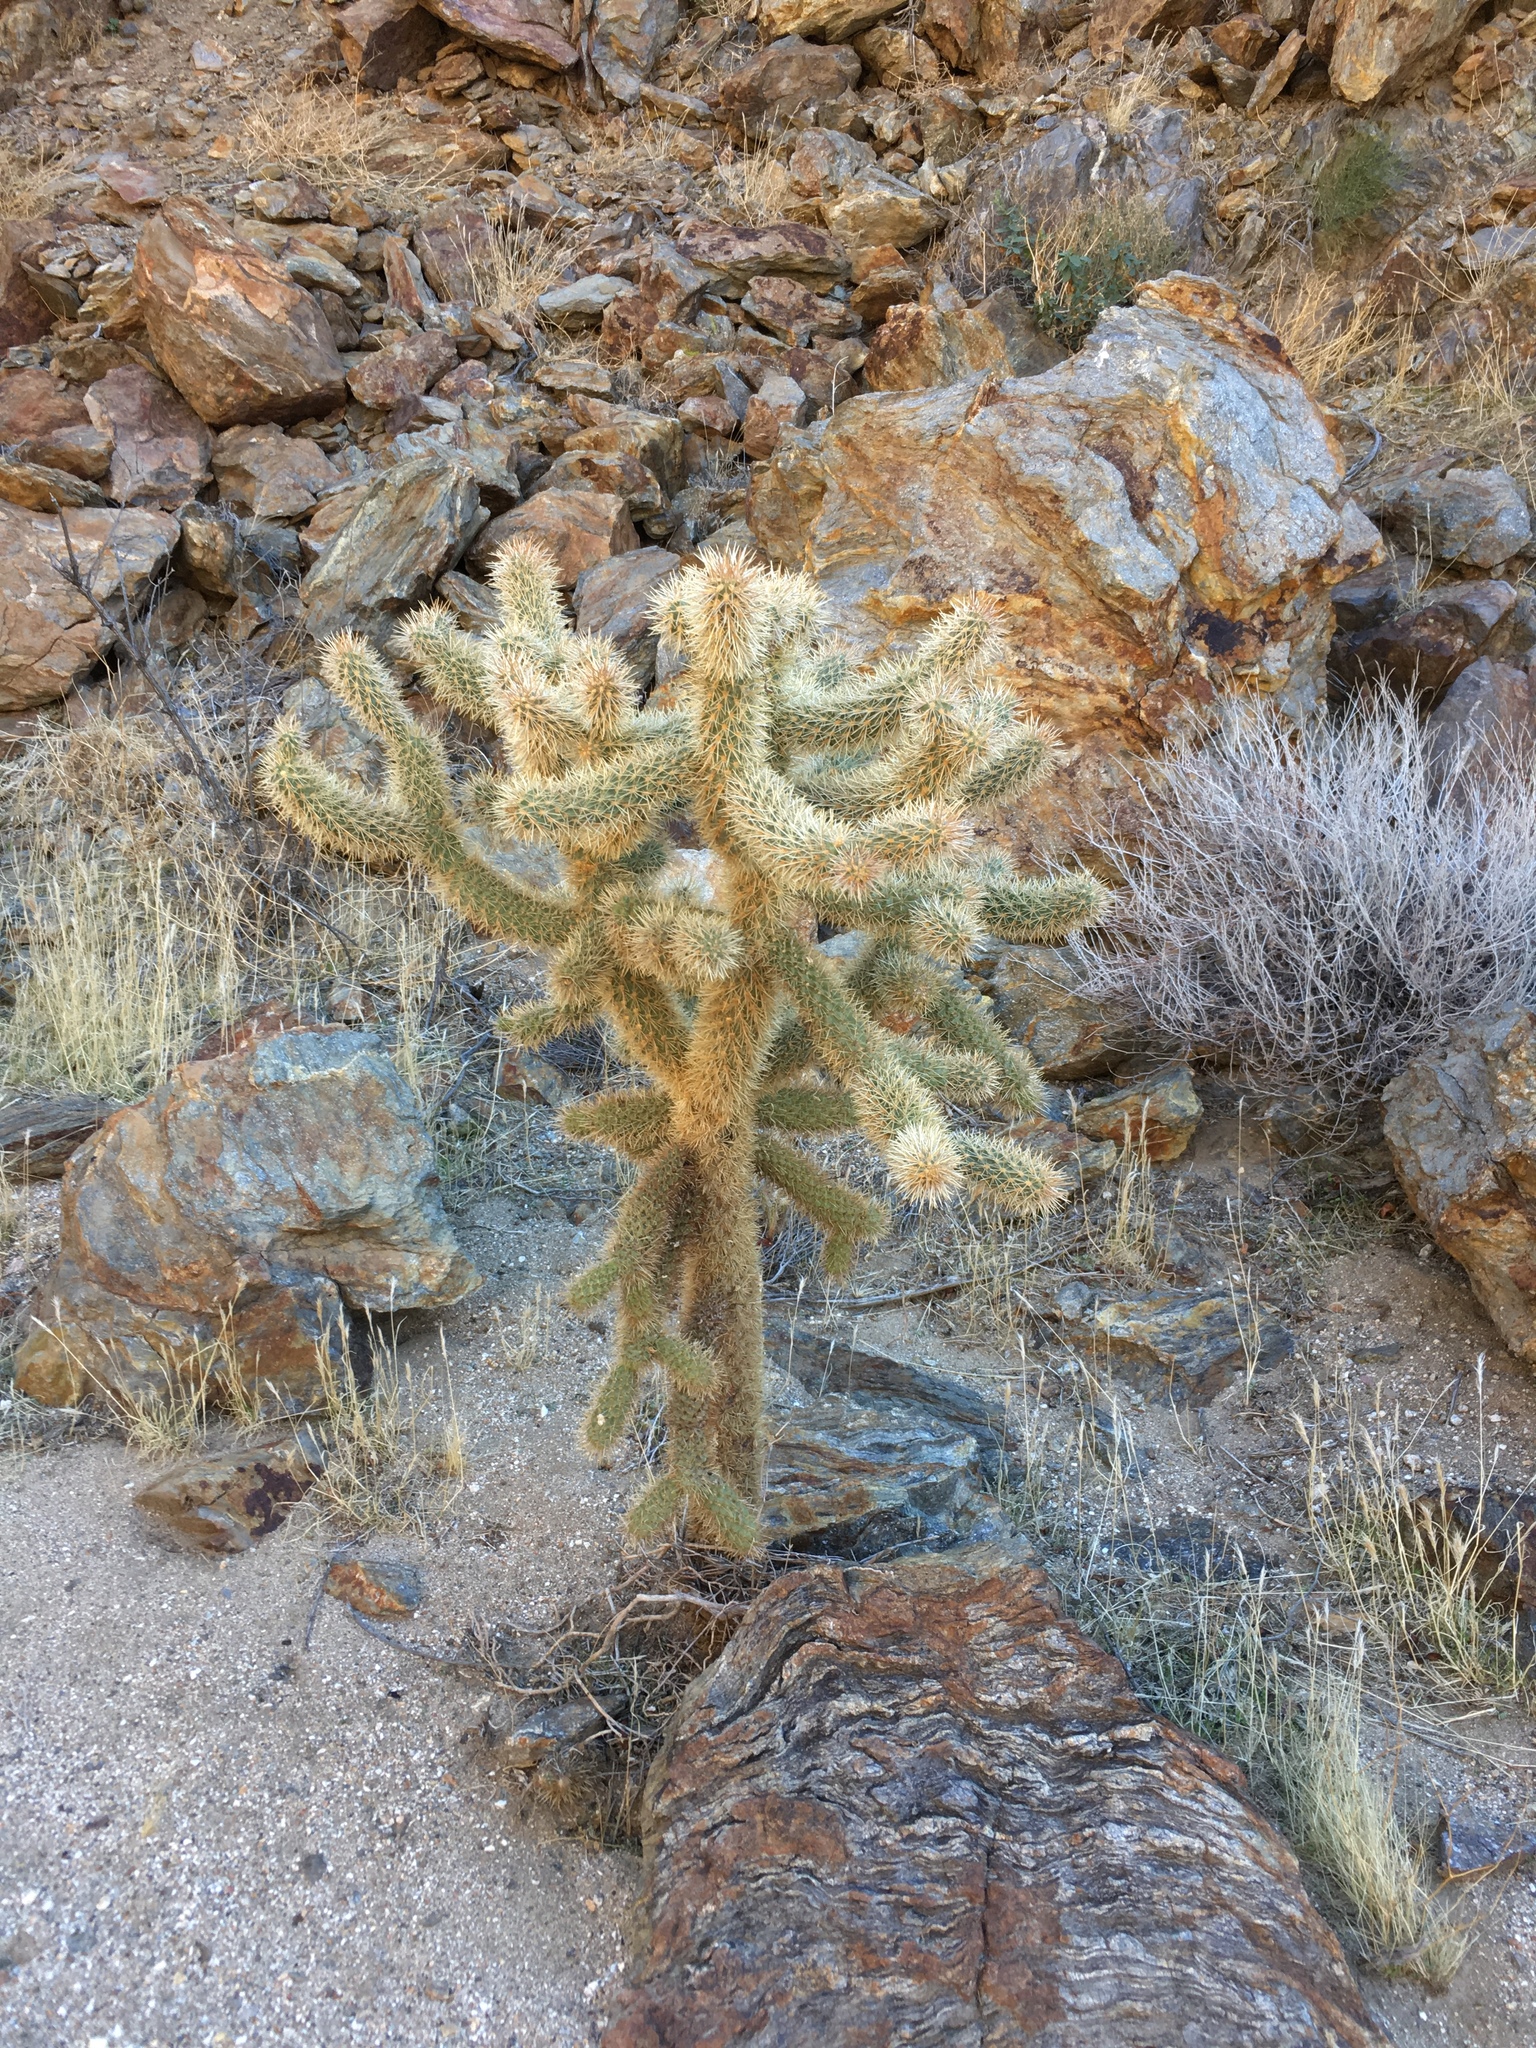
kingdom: Plantae
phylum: Tracheophyta
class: Magnoliopsida
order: Caryophyllales
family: Cactaceae
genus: Cylindropuntia
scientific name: Cylindropuntia fosbergii
